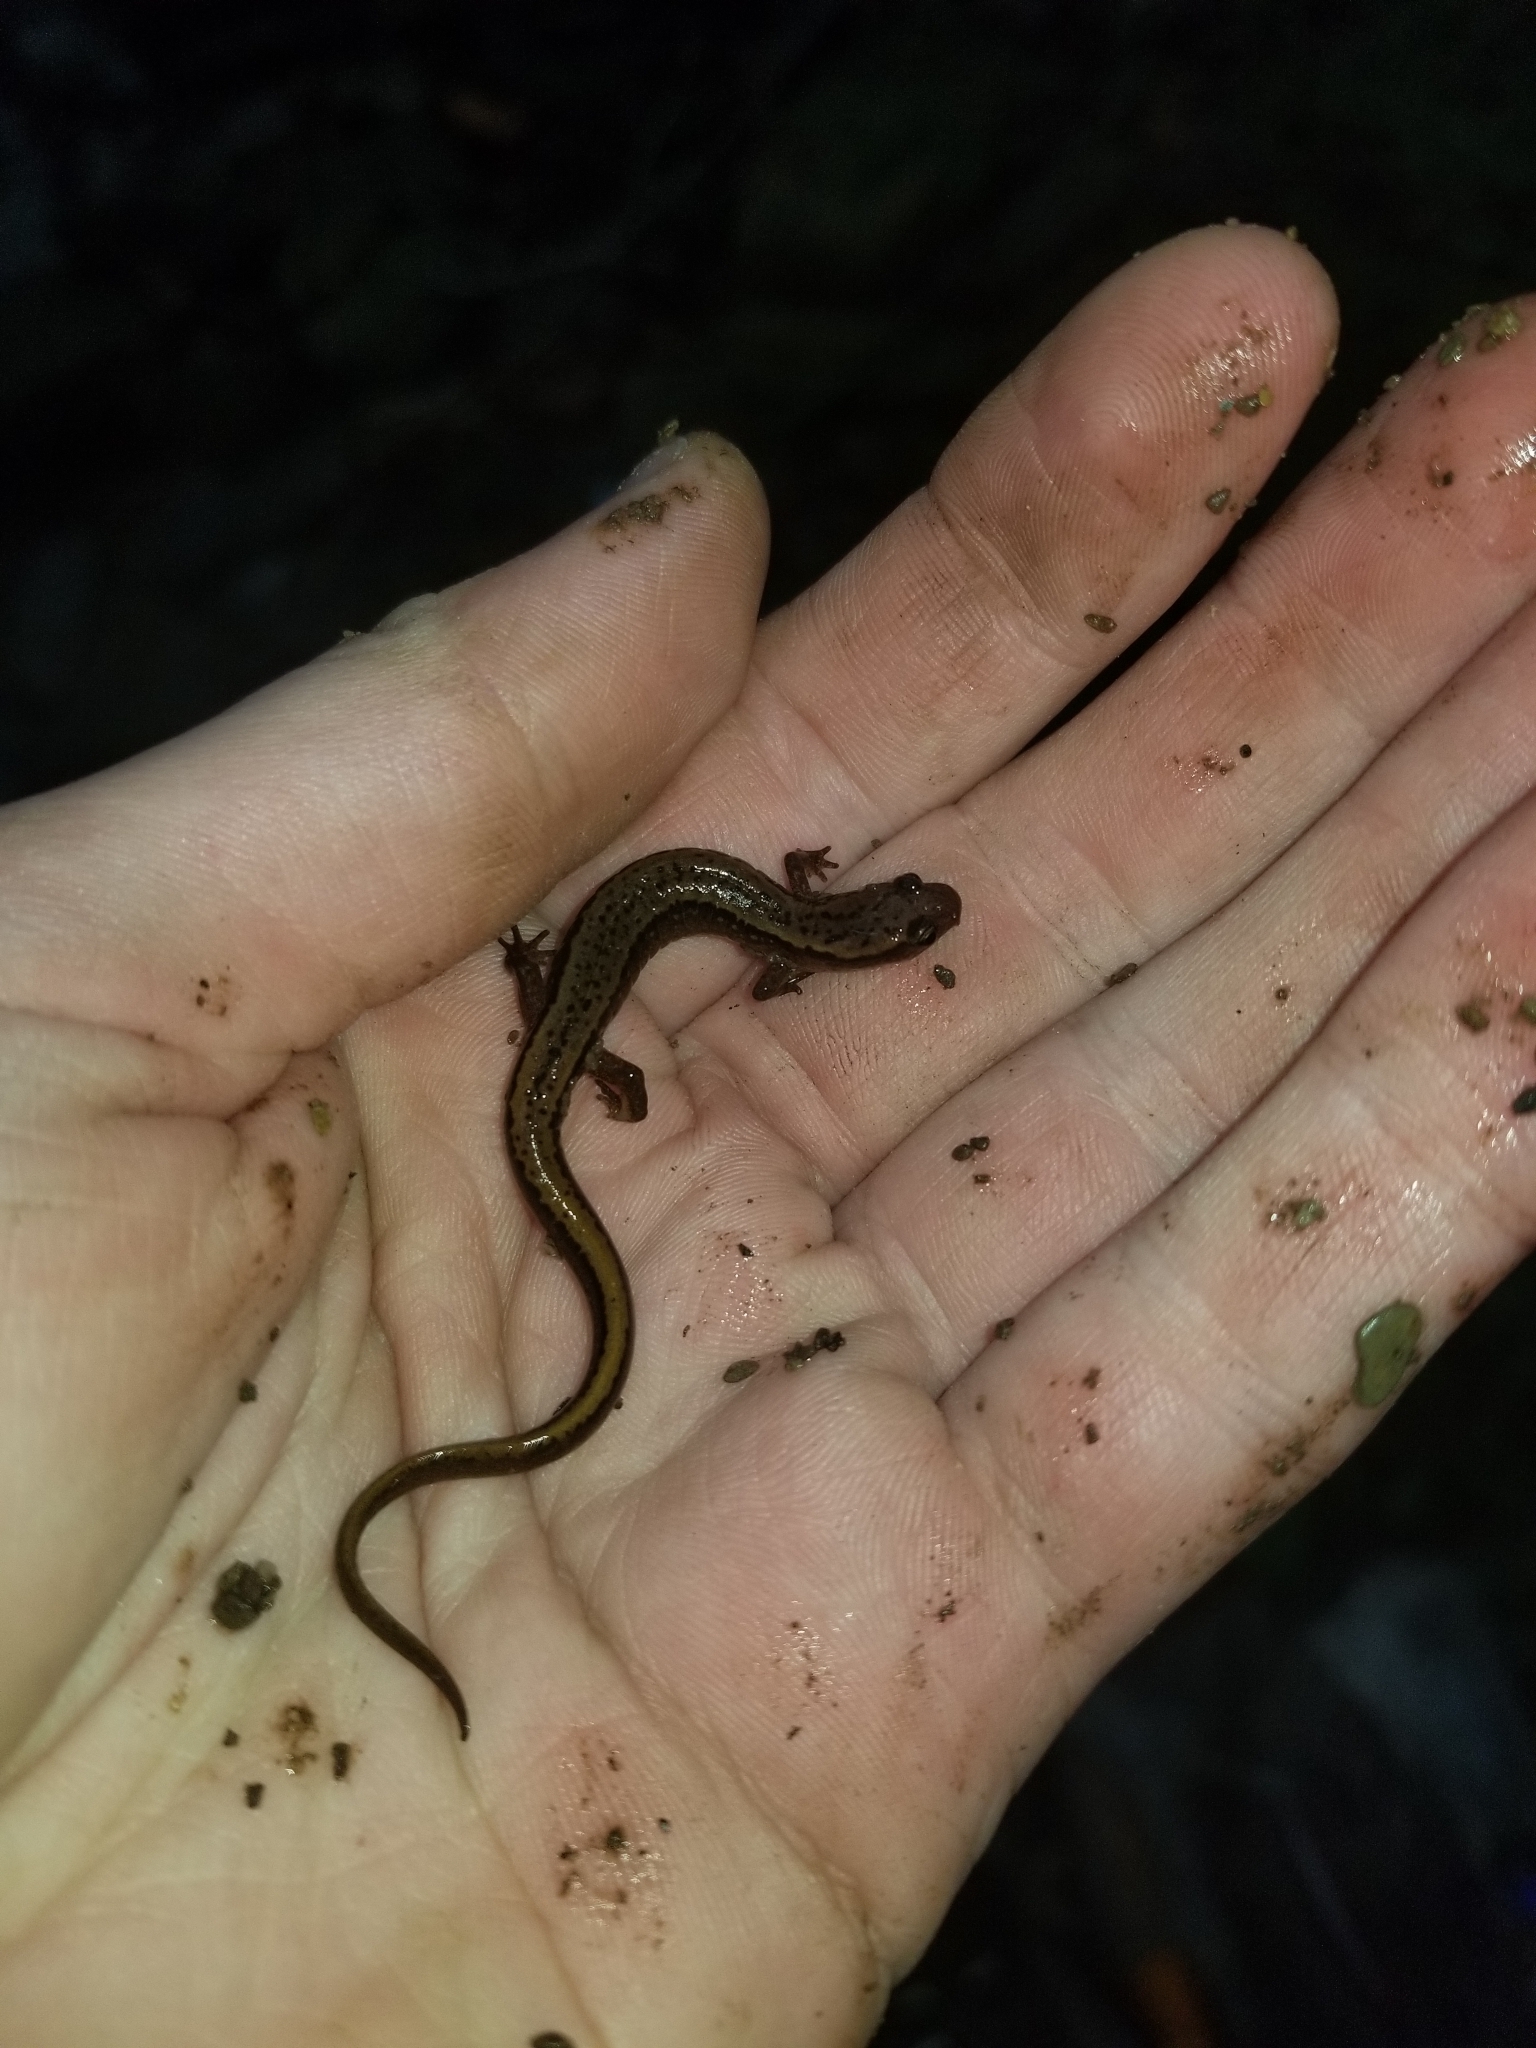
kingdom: Animalia
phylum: Chordata
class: Amphibia
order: Caudata
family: Plethodontidae
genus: Eurycea
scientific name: Eurycea bislineata
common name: Northern two-lined salamander
